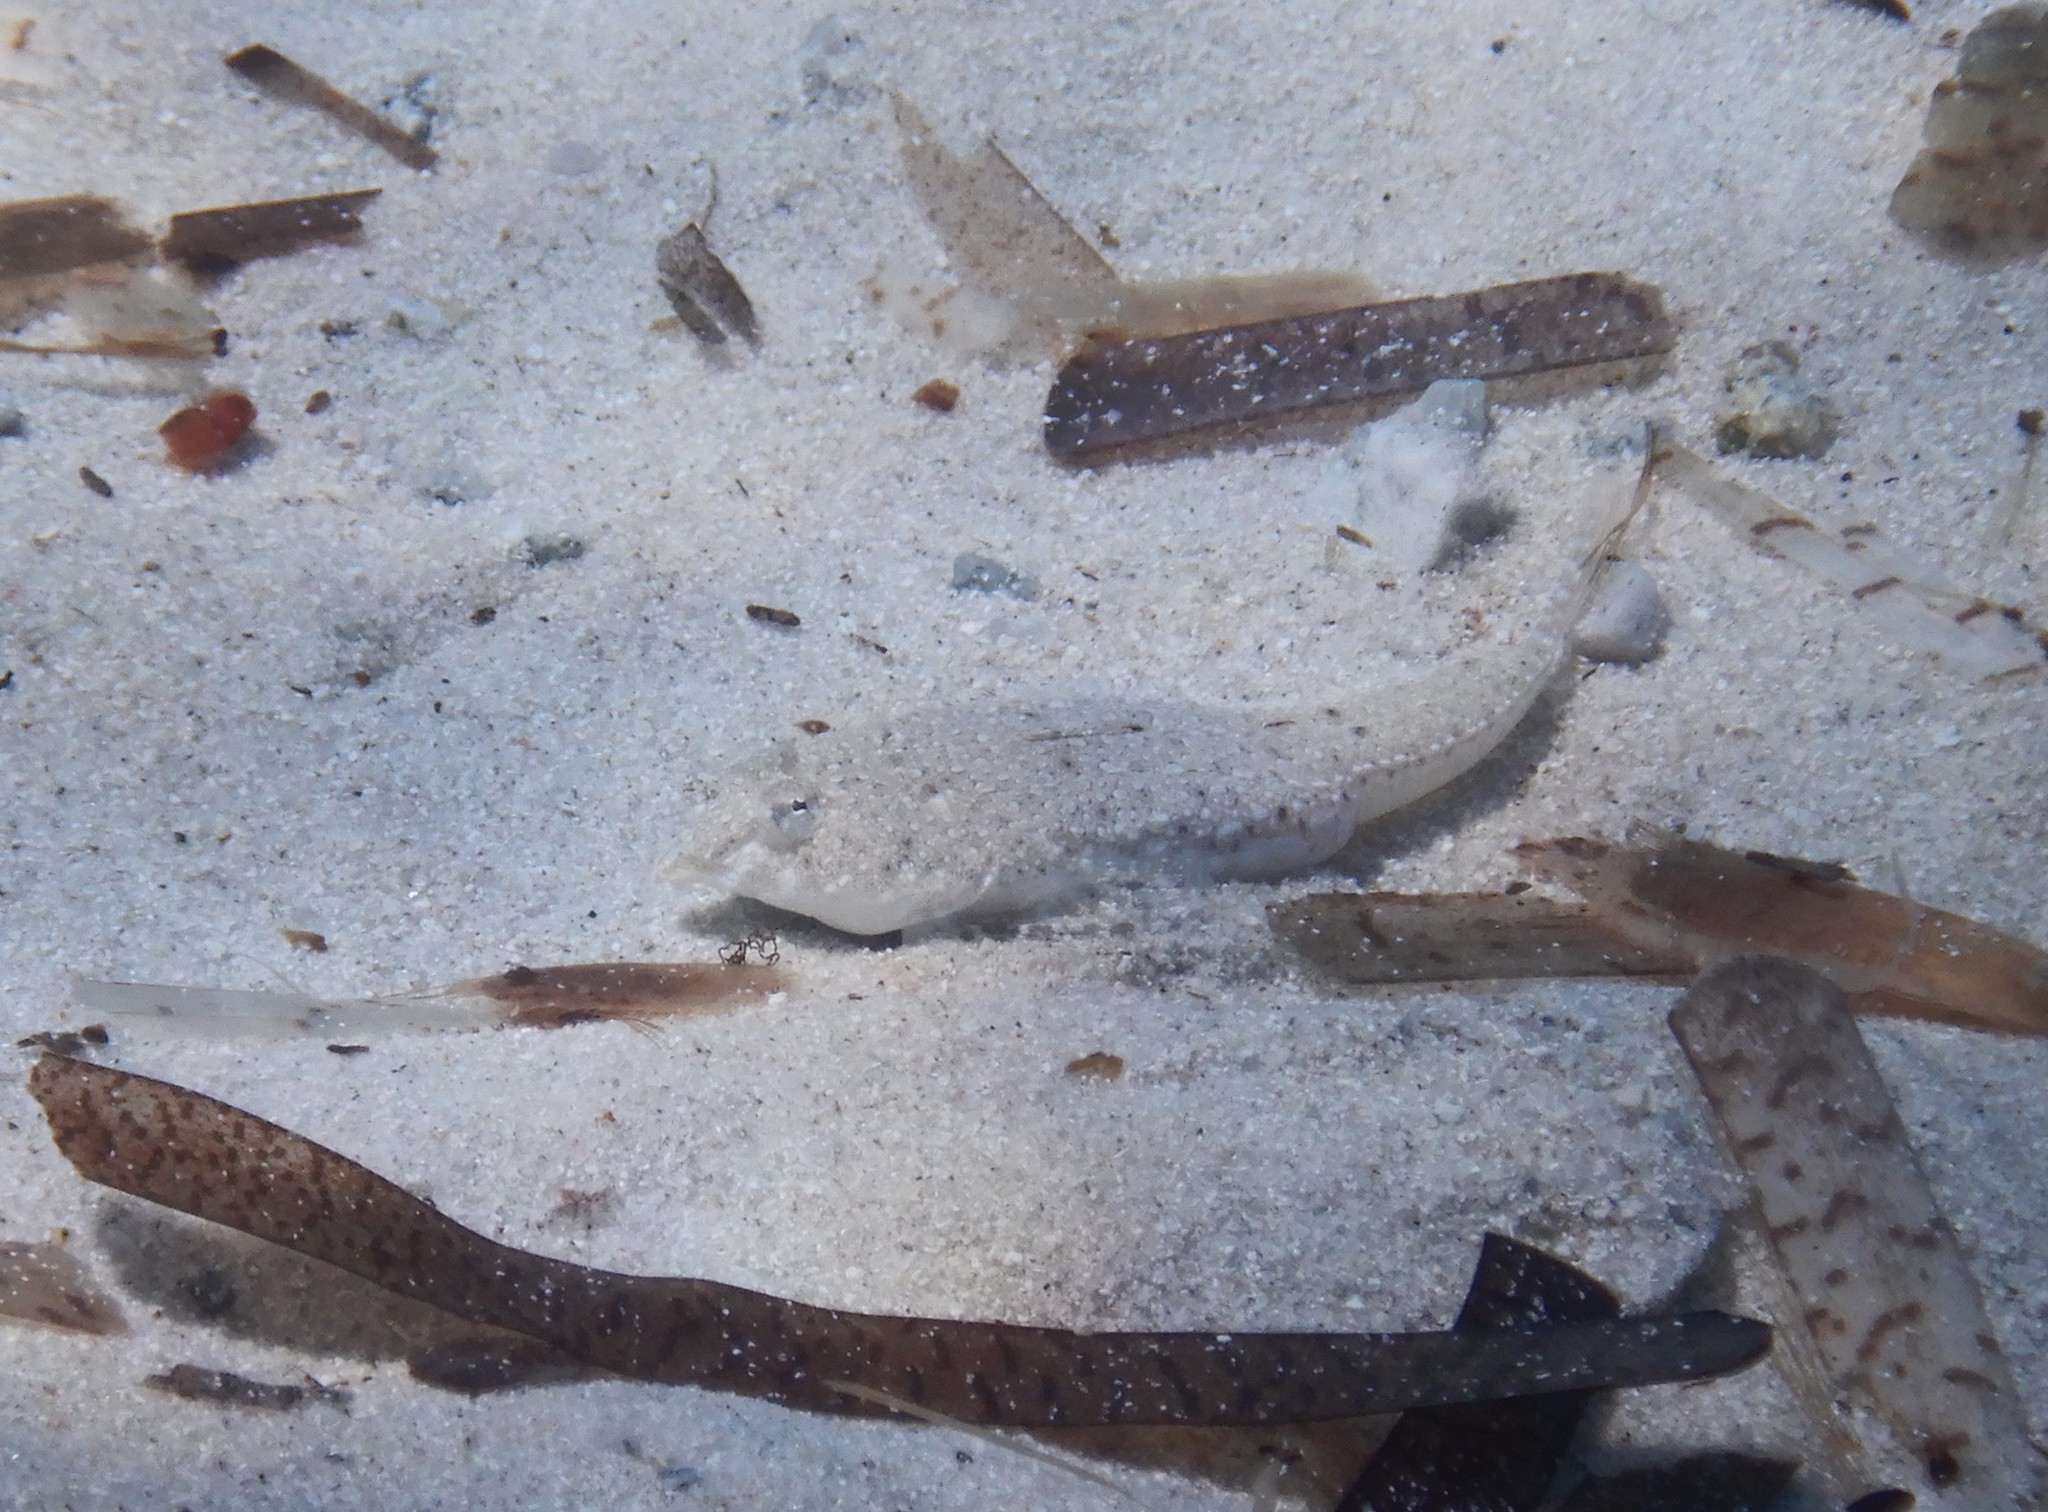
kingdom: Animalia
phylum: Chordata
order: Perciformes
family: Callionymidae
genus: Callionymus
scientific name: Callionymus pusillus
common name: Sailfin dragonet
